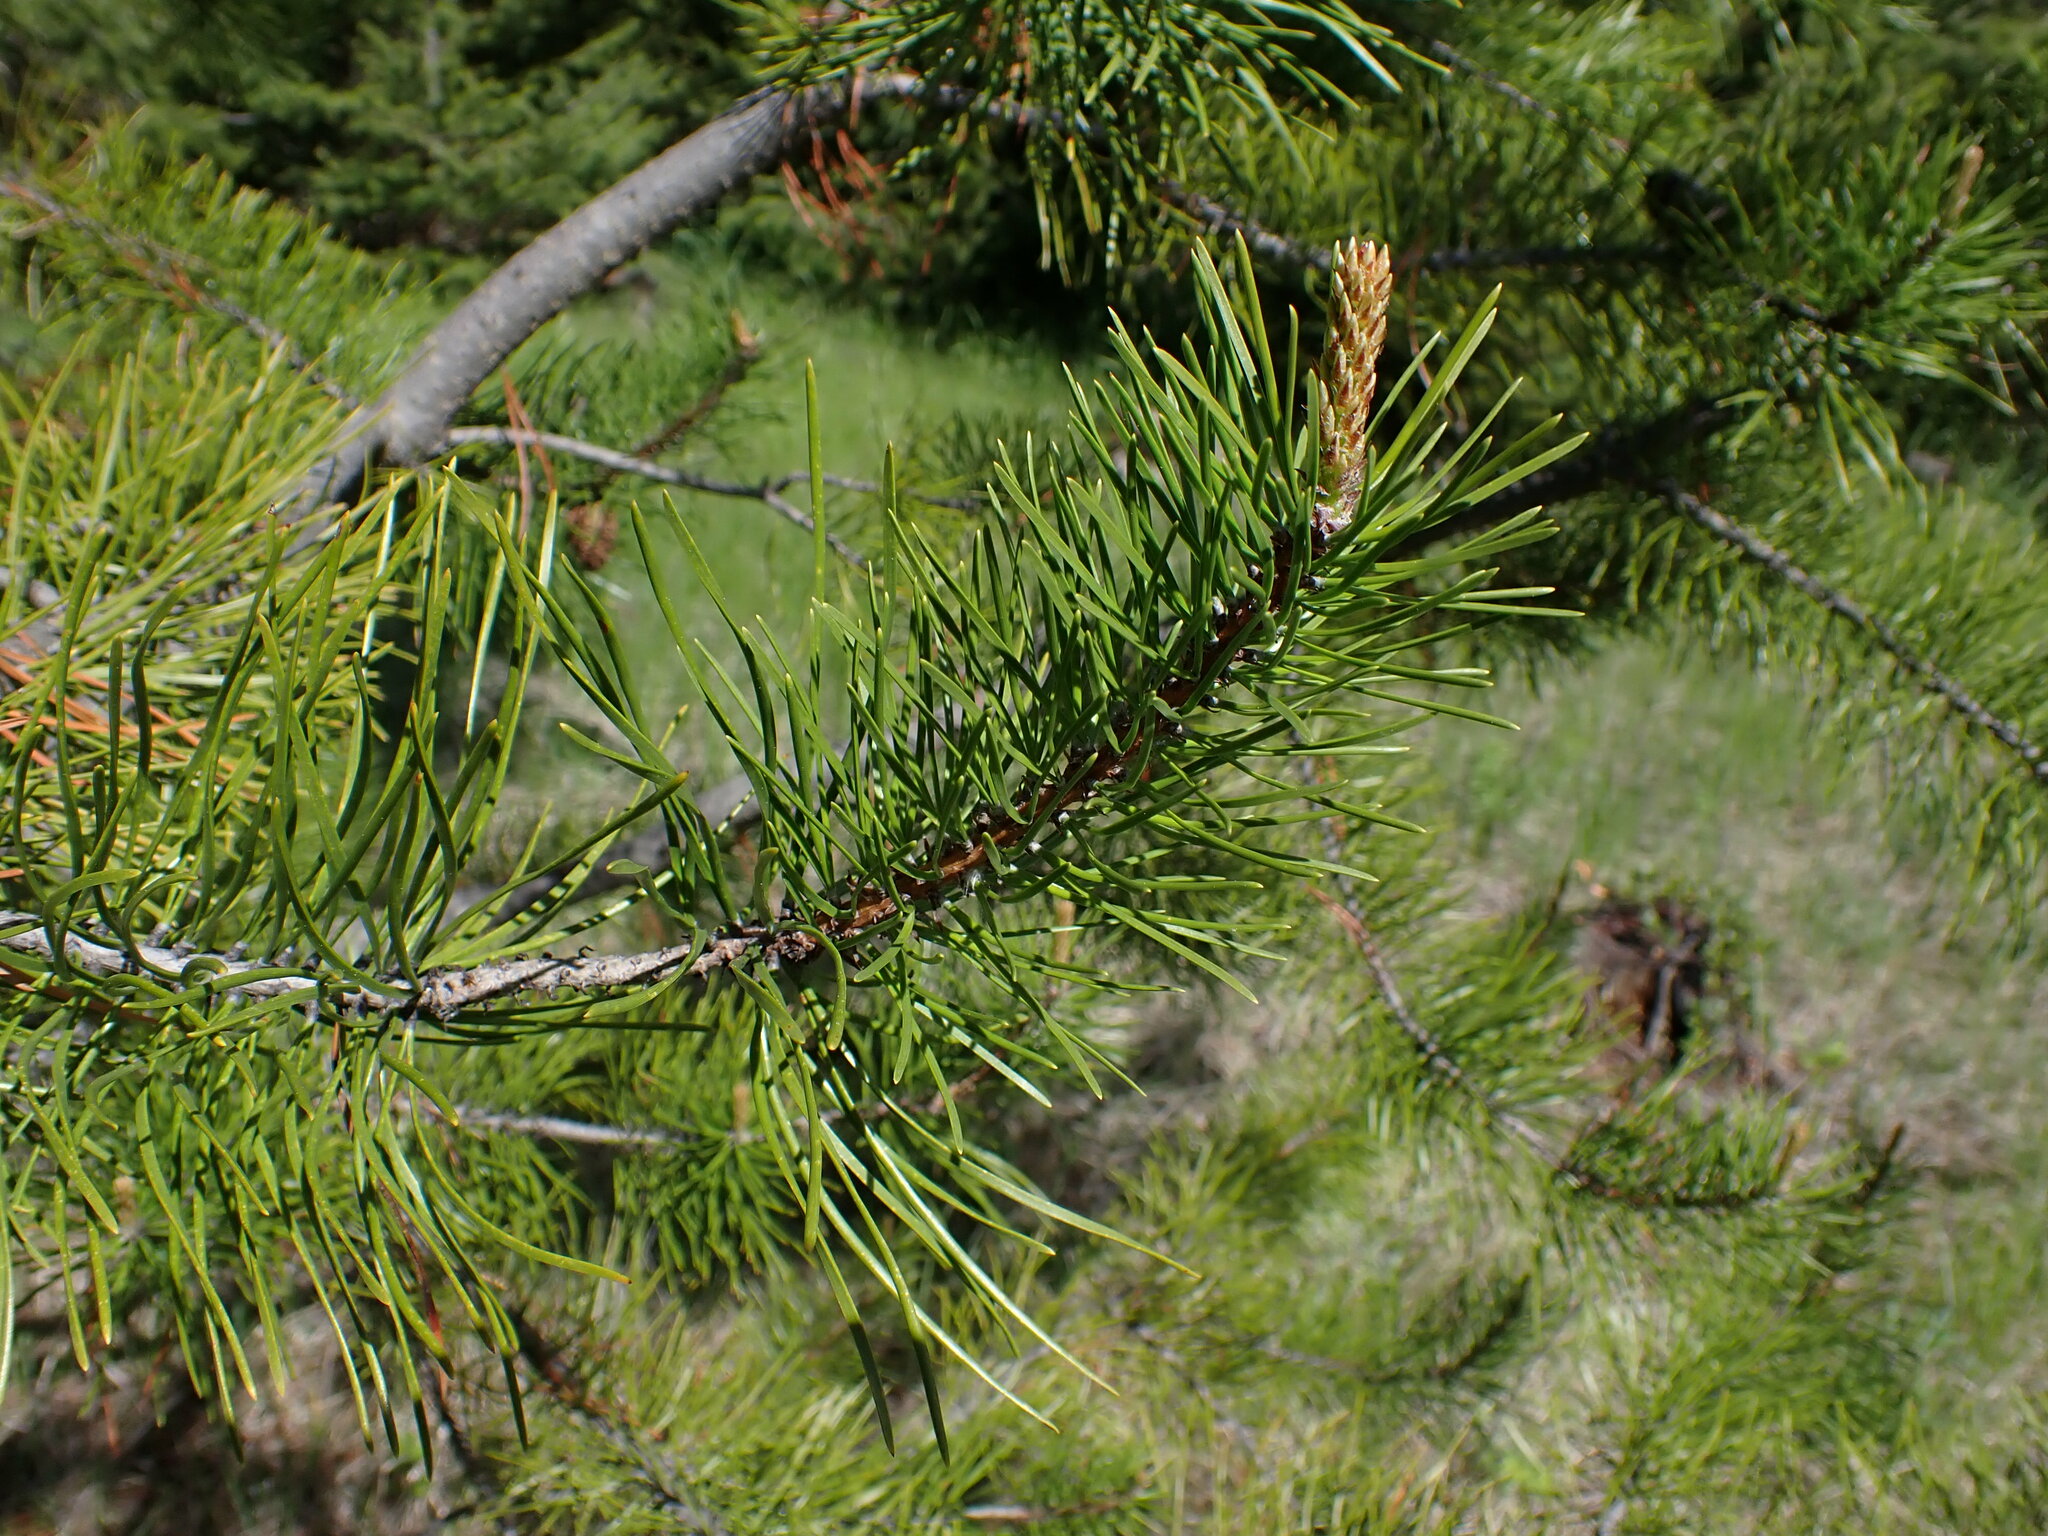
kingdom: Plantae
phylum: Tracheophyta
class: Pinopsida
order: Pinales
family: Pinaceae
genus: Pinus
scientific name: Pinus contorta
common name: Lodgepole pine
